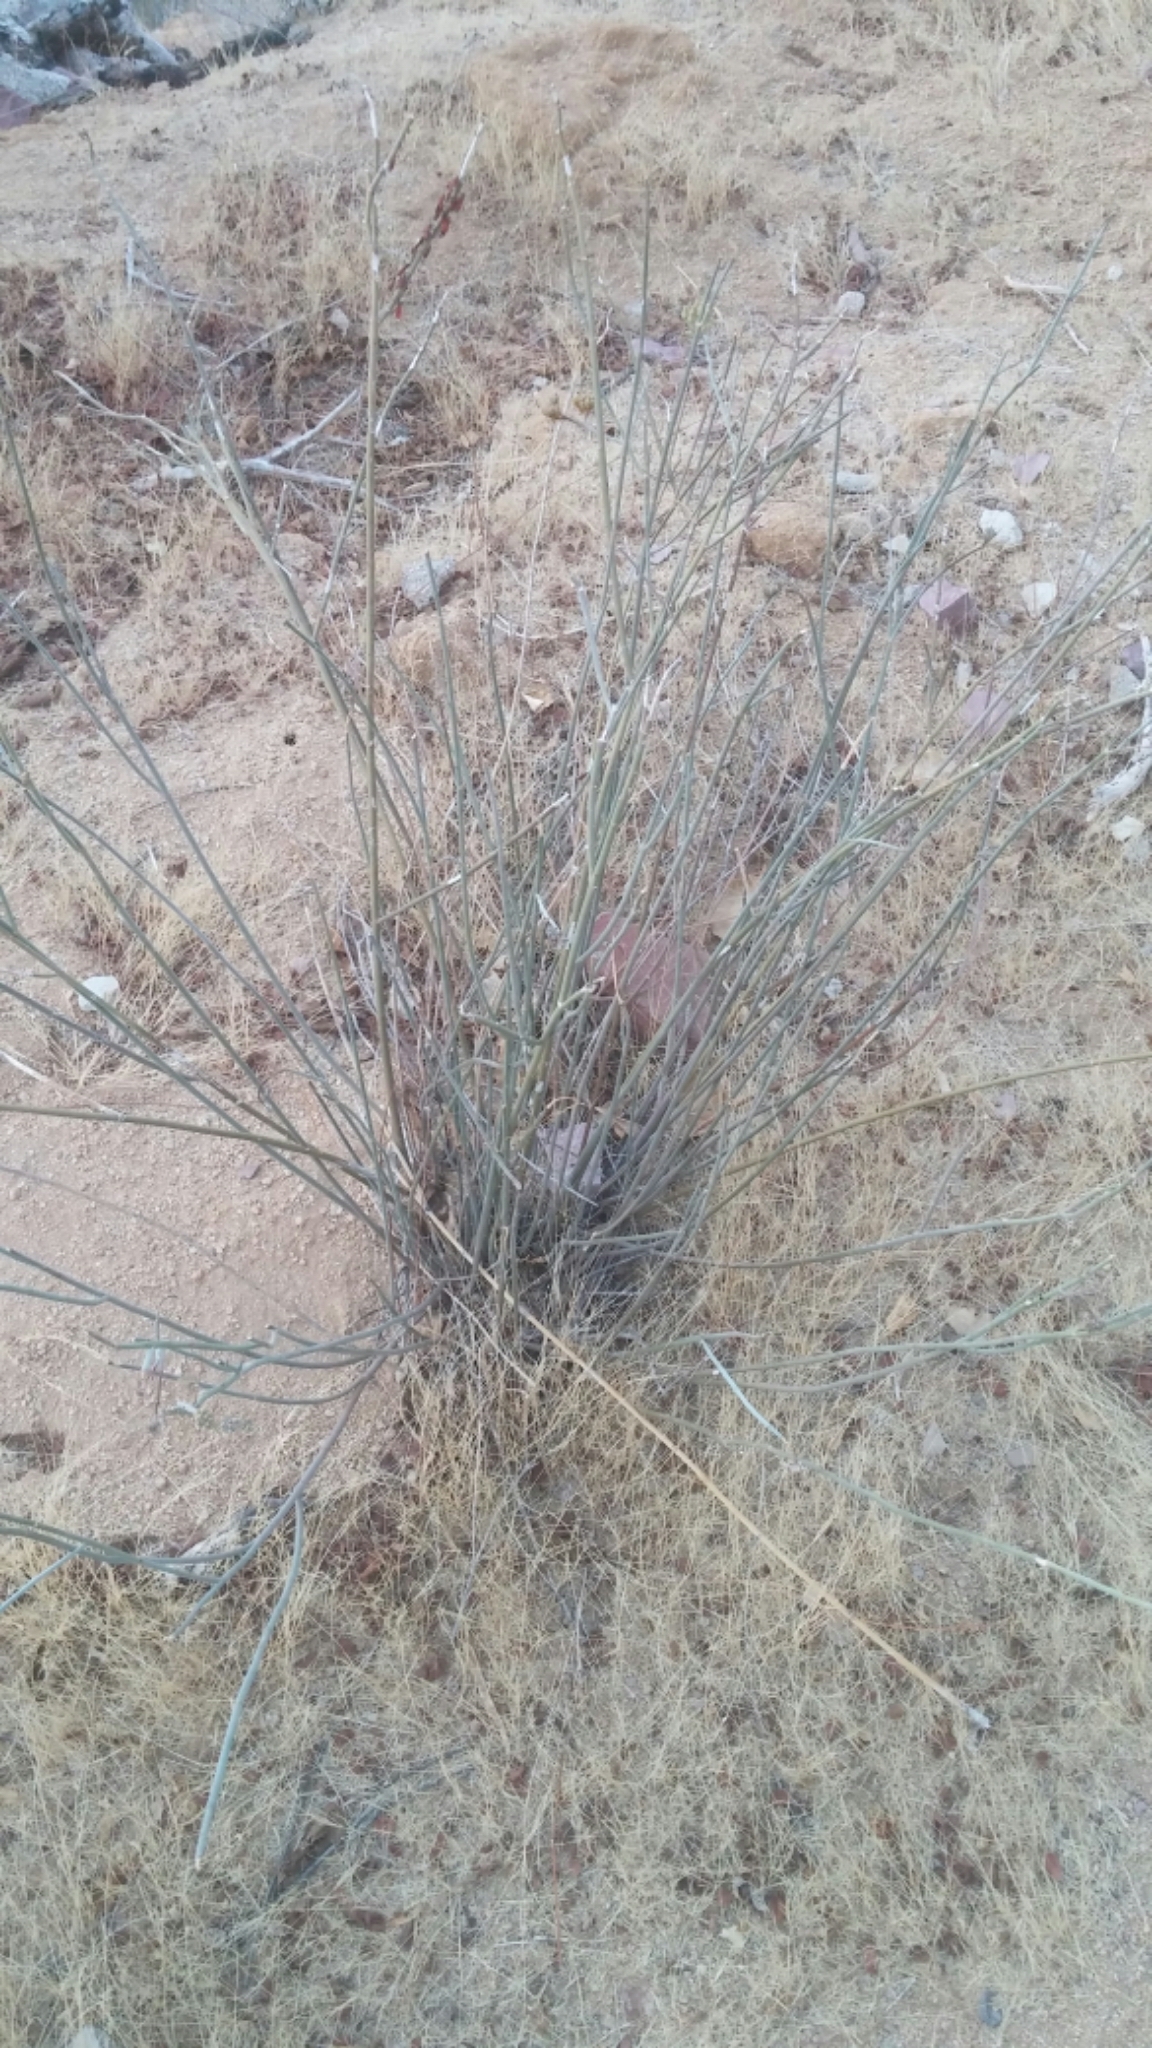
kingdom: Plantae
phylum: Tracheophyta
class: Magnoliopsida
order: Gentianales
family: Apocynaceae
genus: Asclepias
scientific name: Asclepias subulata
